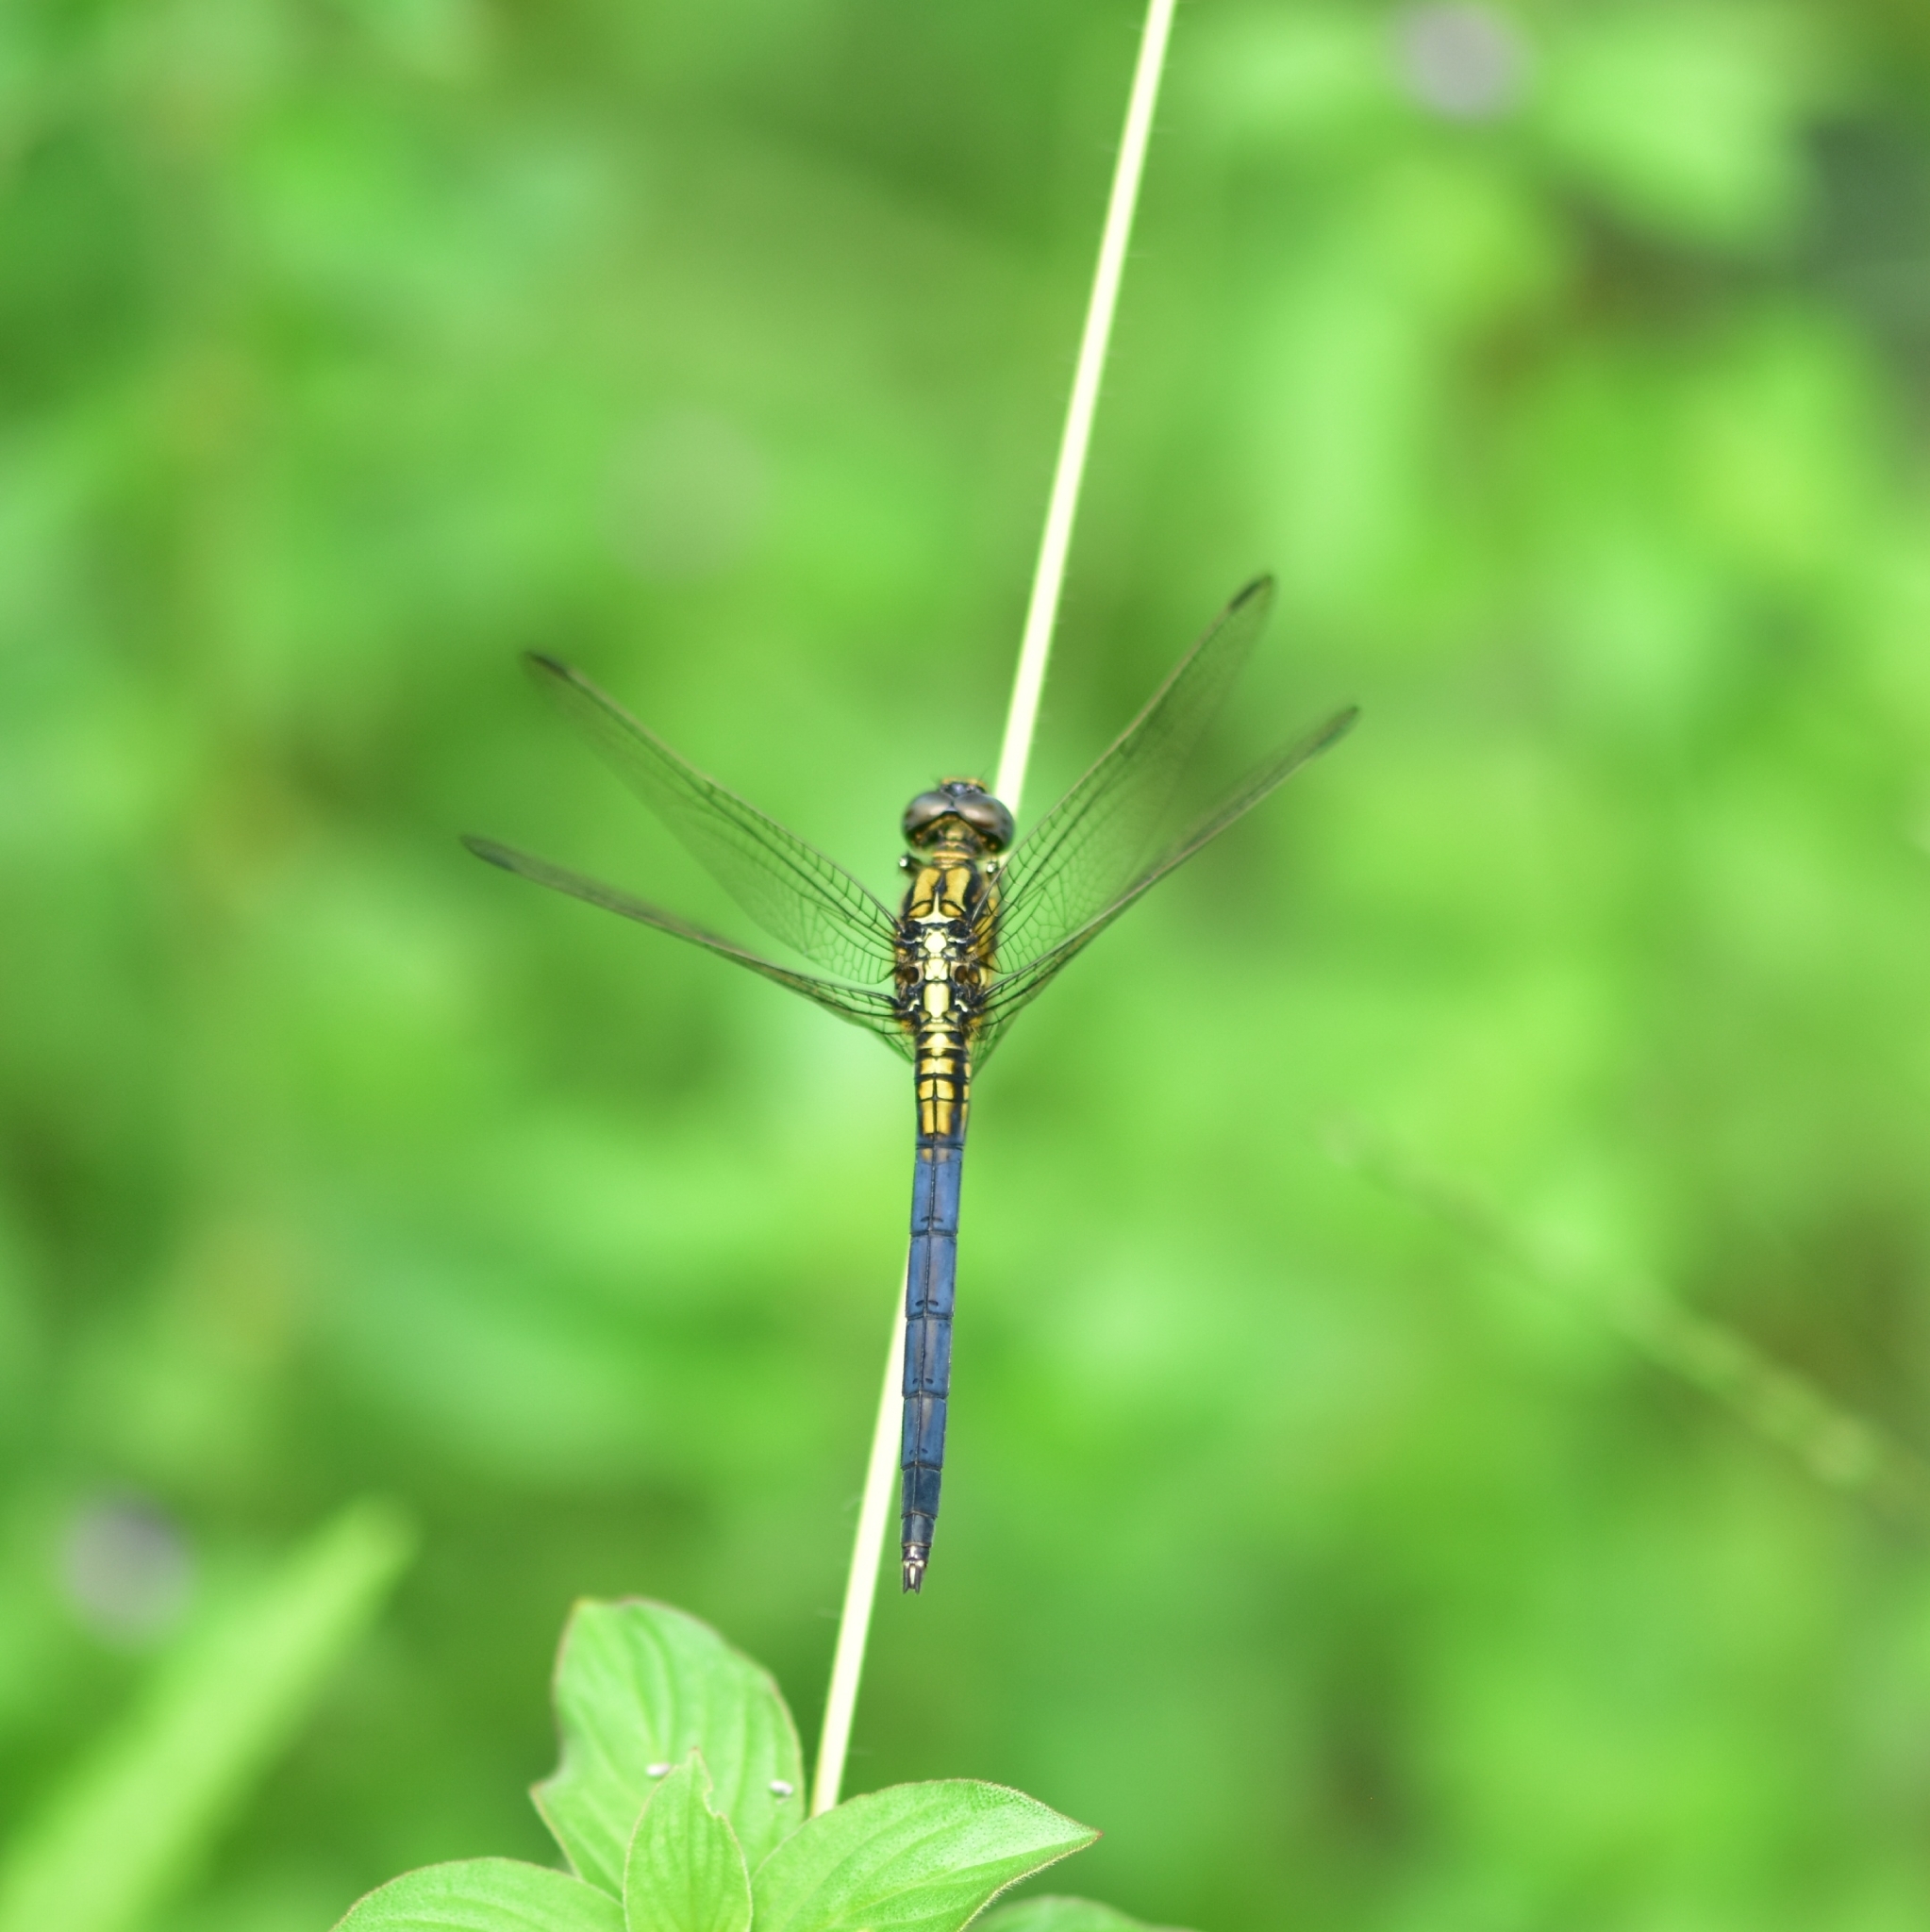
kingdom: Animalia
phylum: Arthropoda
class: Insecta
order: Odonata
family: Libellulidae
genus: Orthetrum
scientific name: Orthetrum luzonicum
